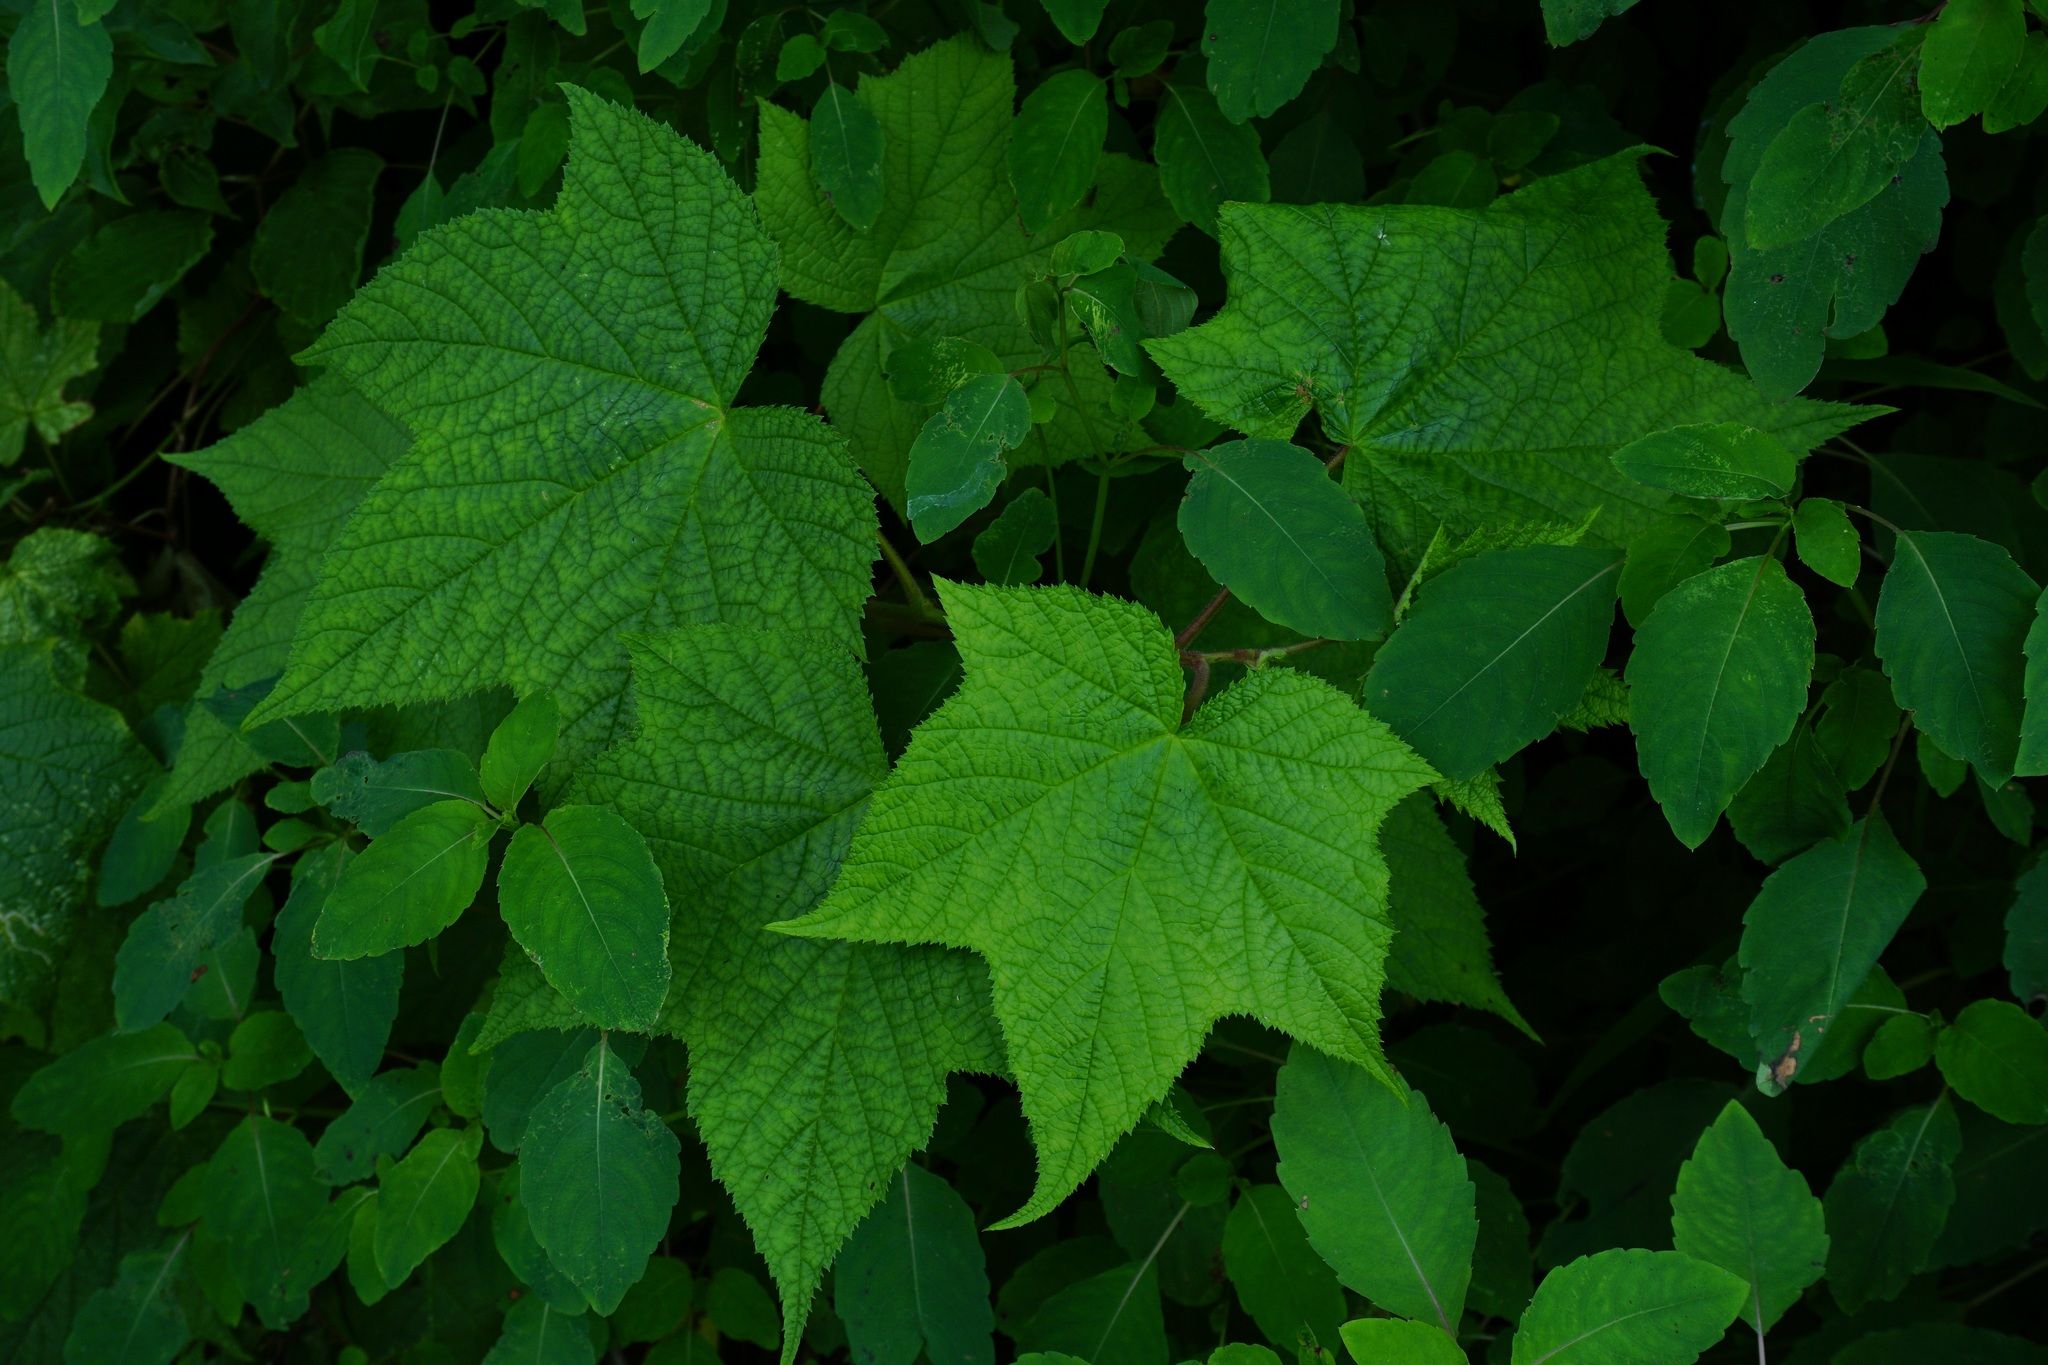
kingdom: Plantae
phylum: Tracheophyta
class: Magnoliopsida
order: Rosales
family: Rosaceae
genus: Rubus
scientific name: Rubus odoratus
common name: Purple-flowered raspberry
